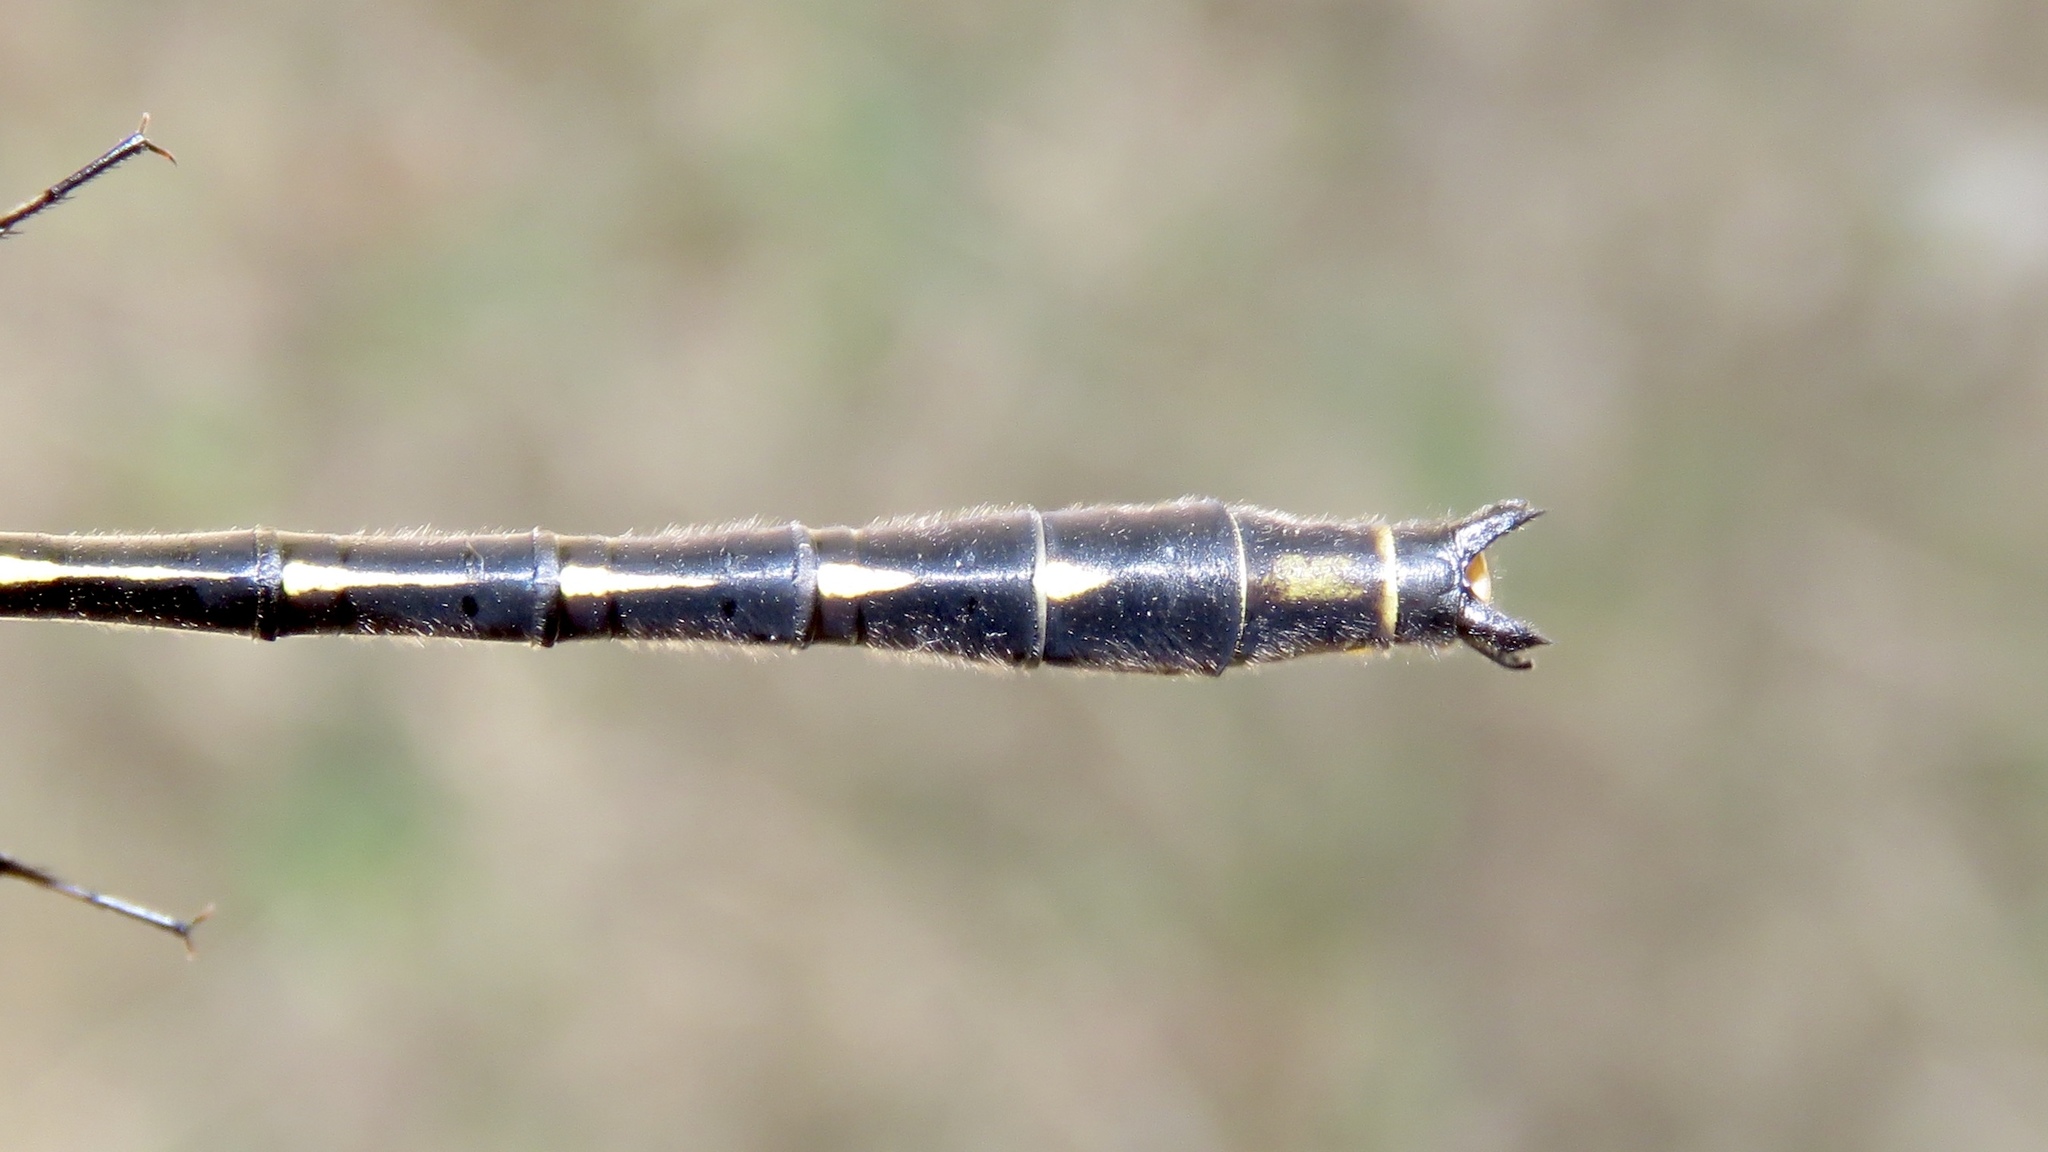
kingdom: Animalia
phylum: Arthropoda
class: Insecta
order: Odonata
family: Gomphidae
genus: Phanogomphus
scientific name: Phanogomphus exilis
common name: Lancet clubtail
